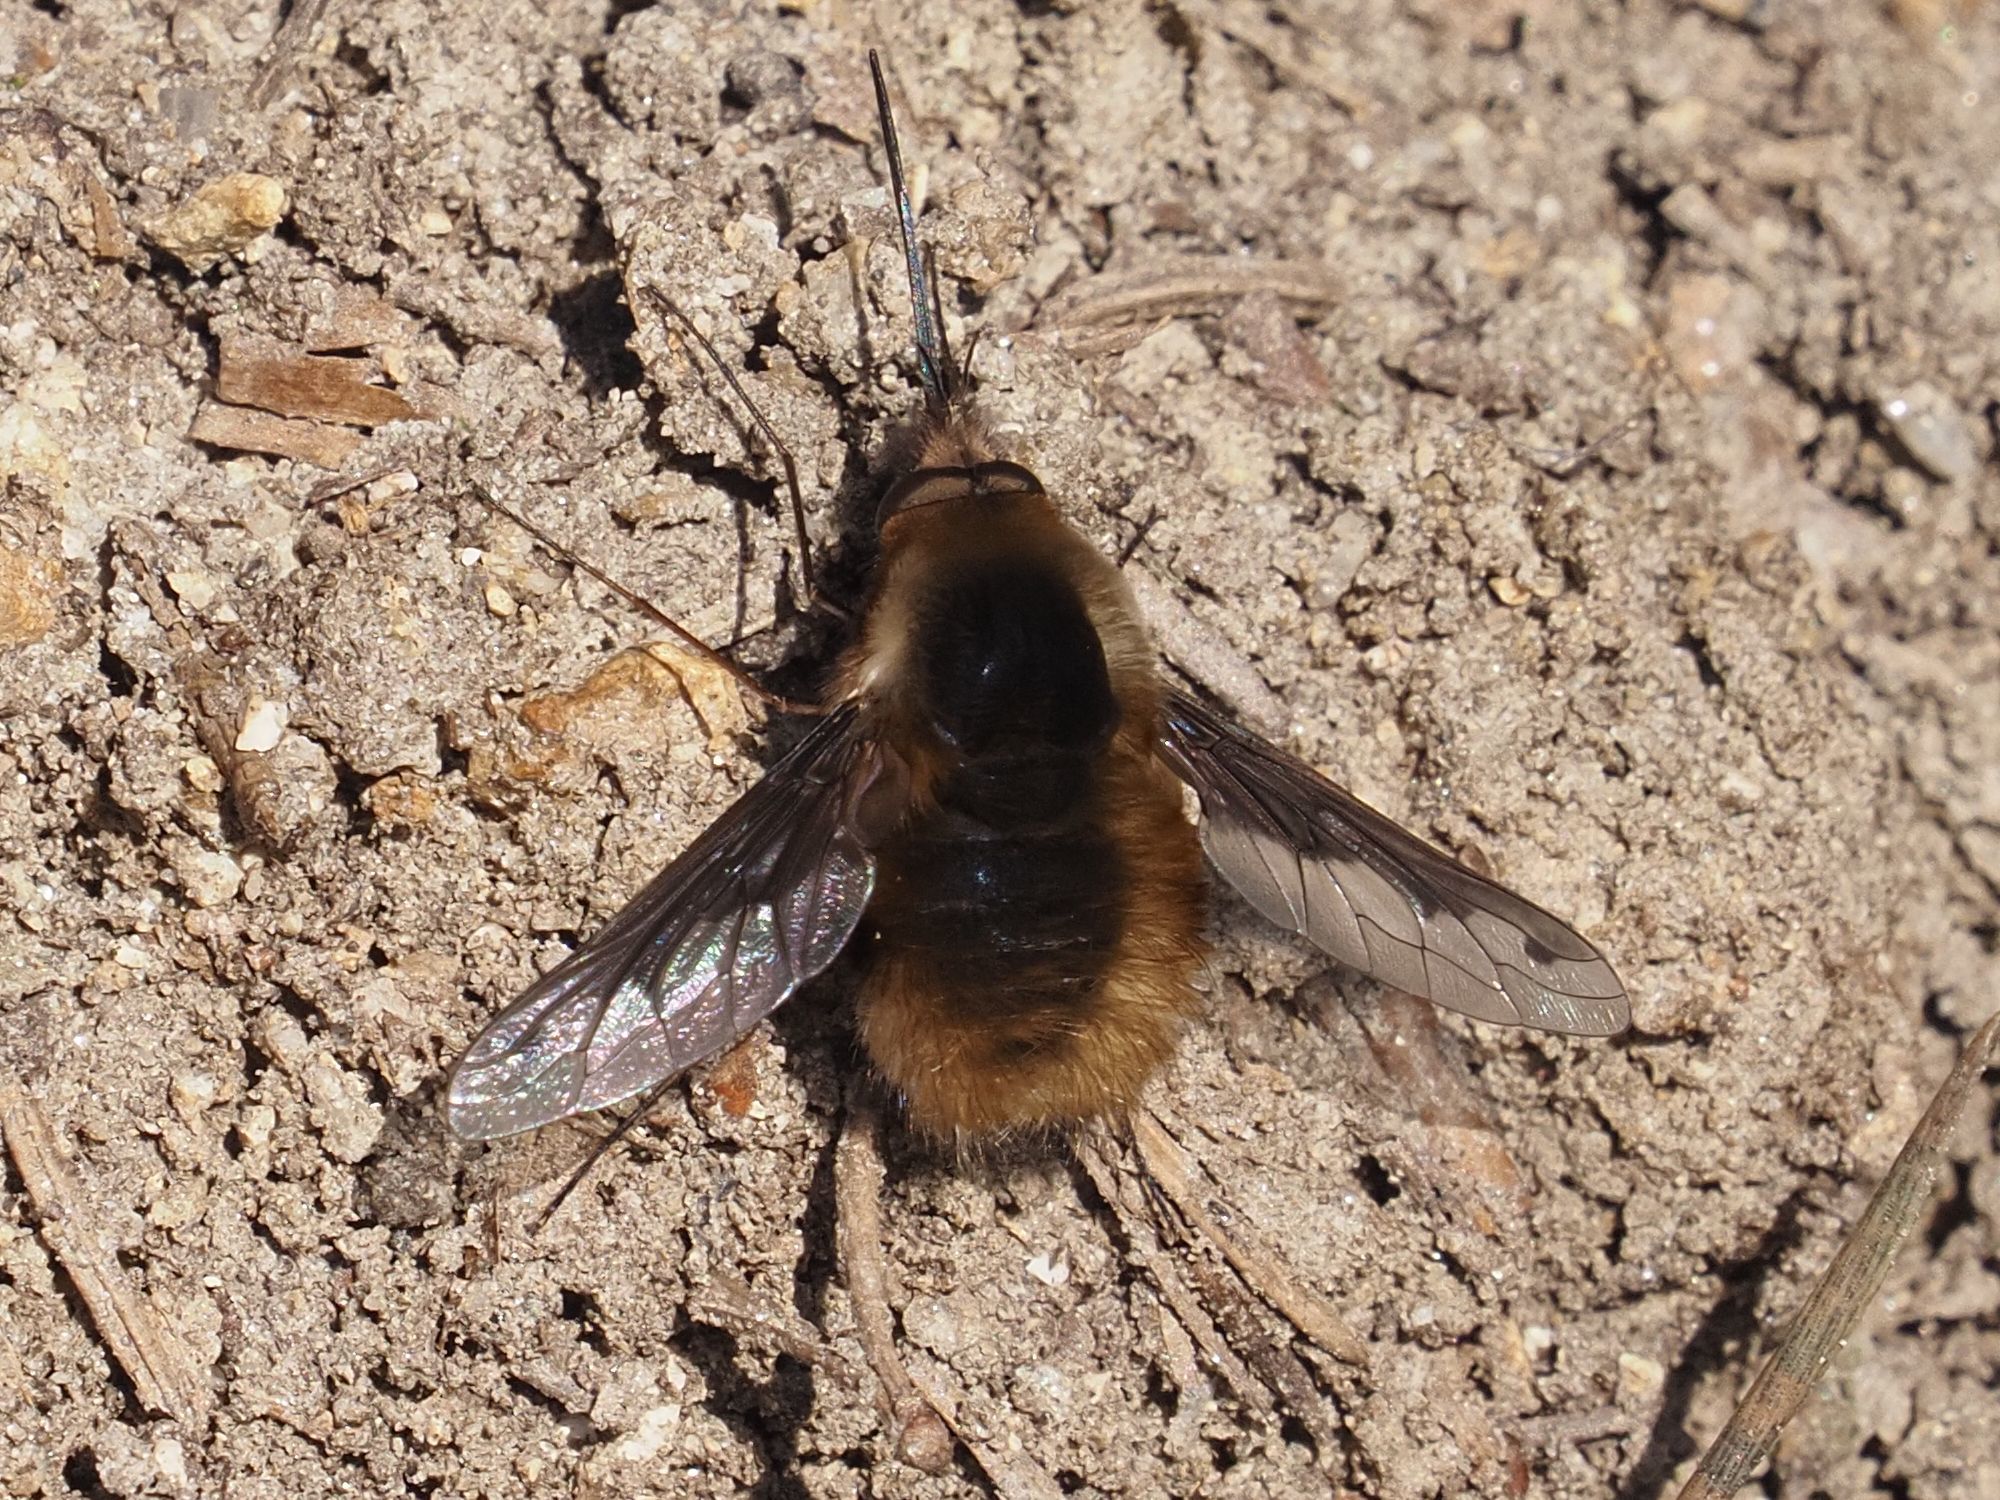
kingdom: Animalia
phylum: Arthropoda
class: Insecta
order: Diptera
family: Bombyliidae
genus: Bombylius
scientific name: Bombylius major
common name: Bee fly
